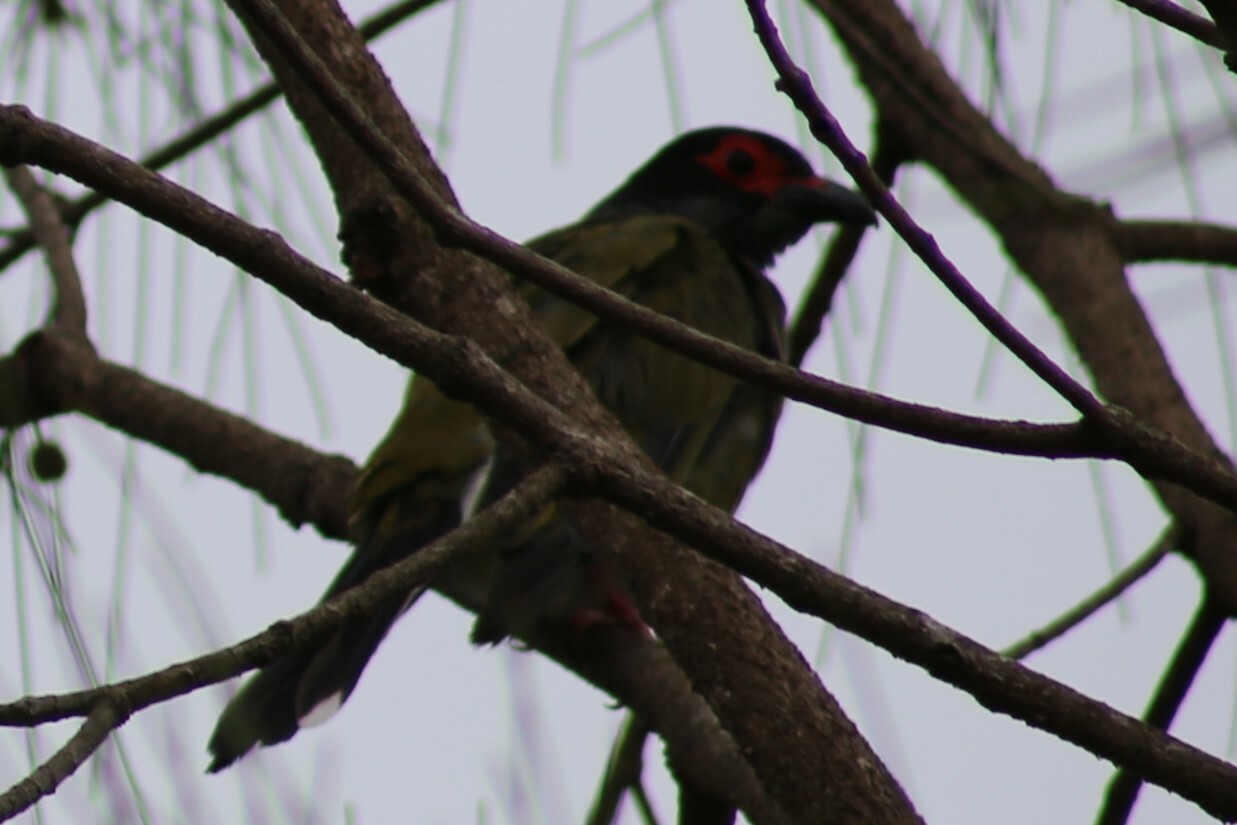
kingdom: Animalia
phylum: Chordata
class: Aves
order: Passeriformes
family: Oriolidae
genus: Sphecotheres
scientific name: Sphecotheres vieilloti
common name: Australasian figbird
